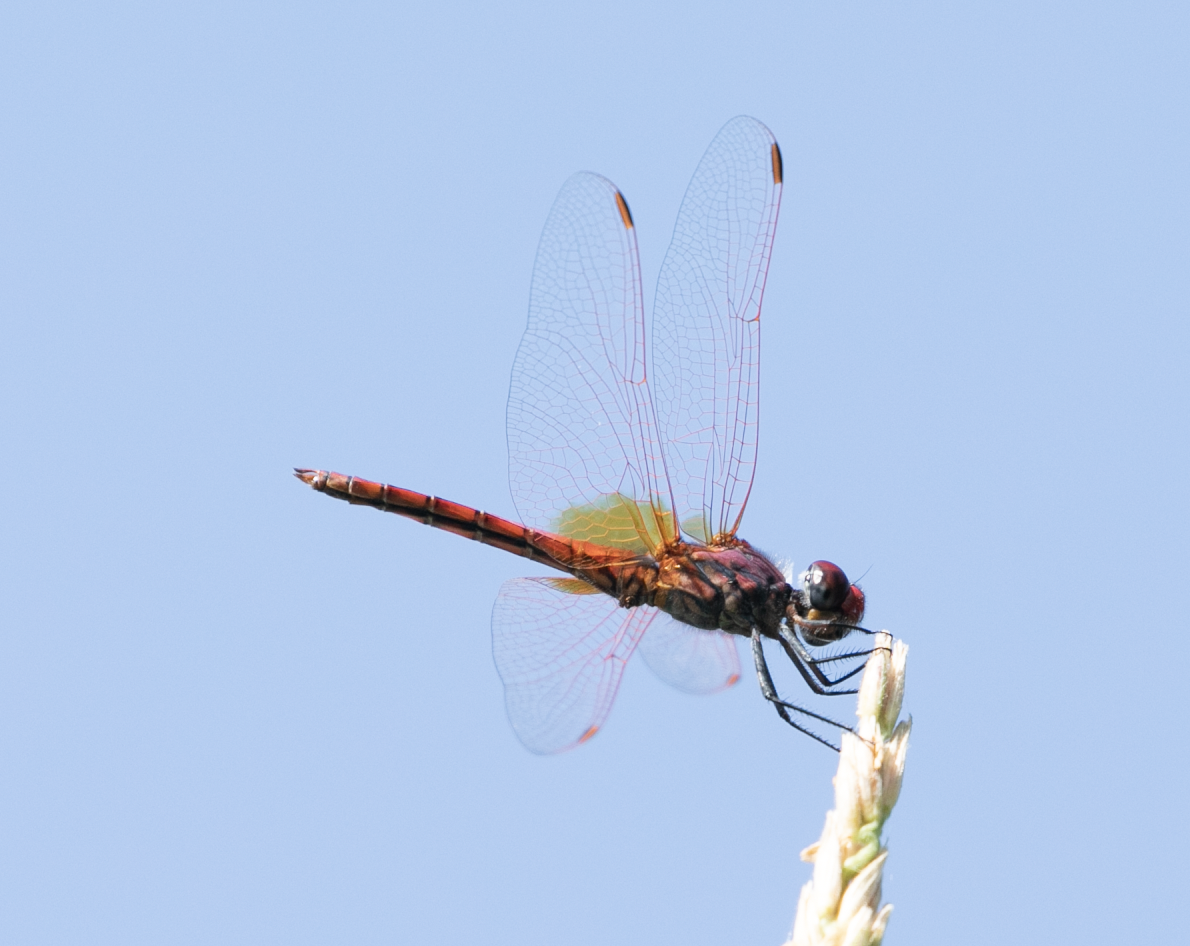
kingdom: Animalia
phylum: Arthropoda
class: Insecta
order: Odonata
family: Libellulidae
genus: Trithemis
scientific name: Trithemis annulata
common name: Violet dropwing
